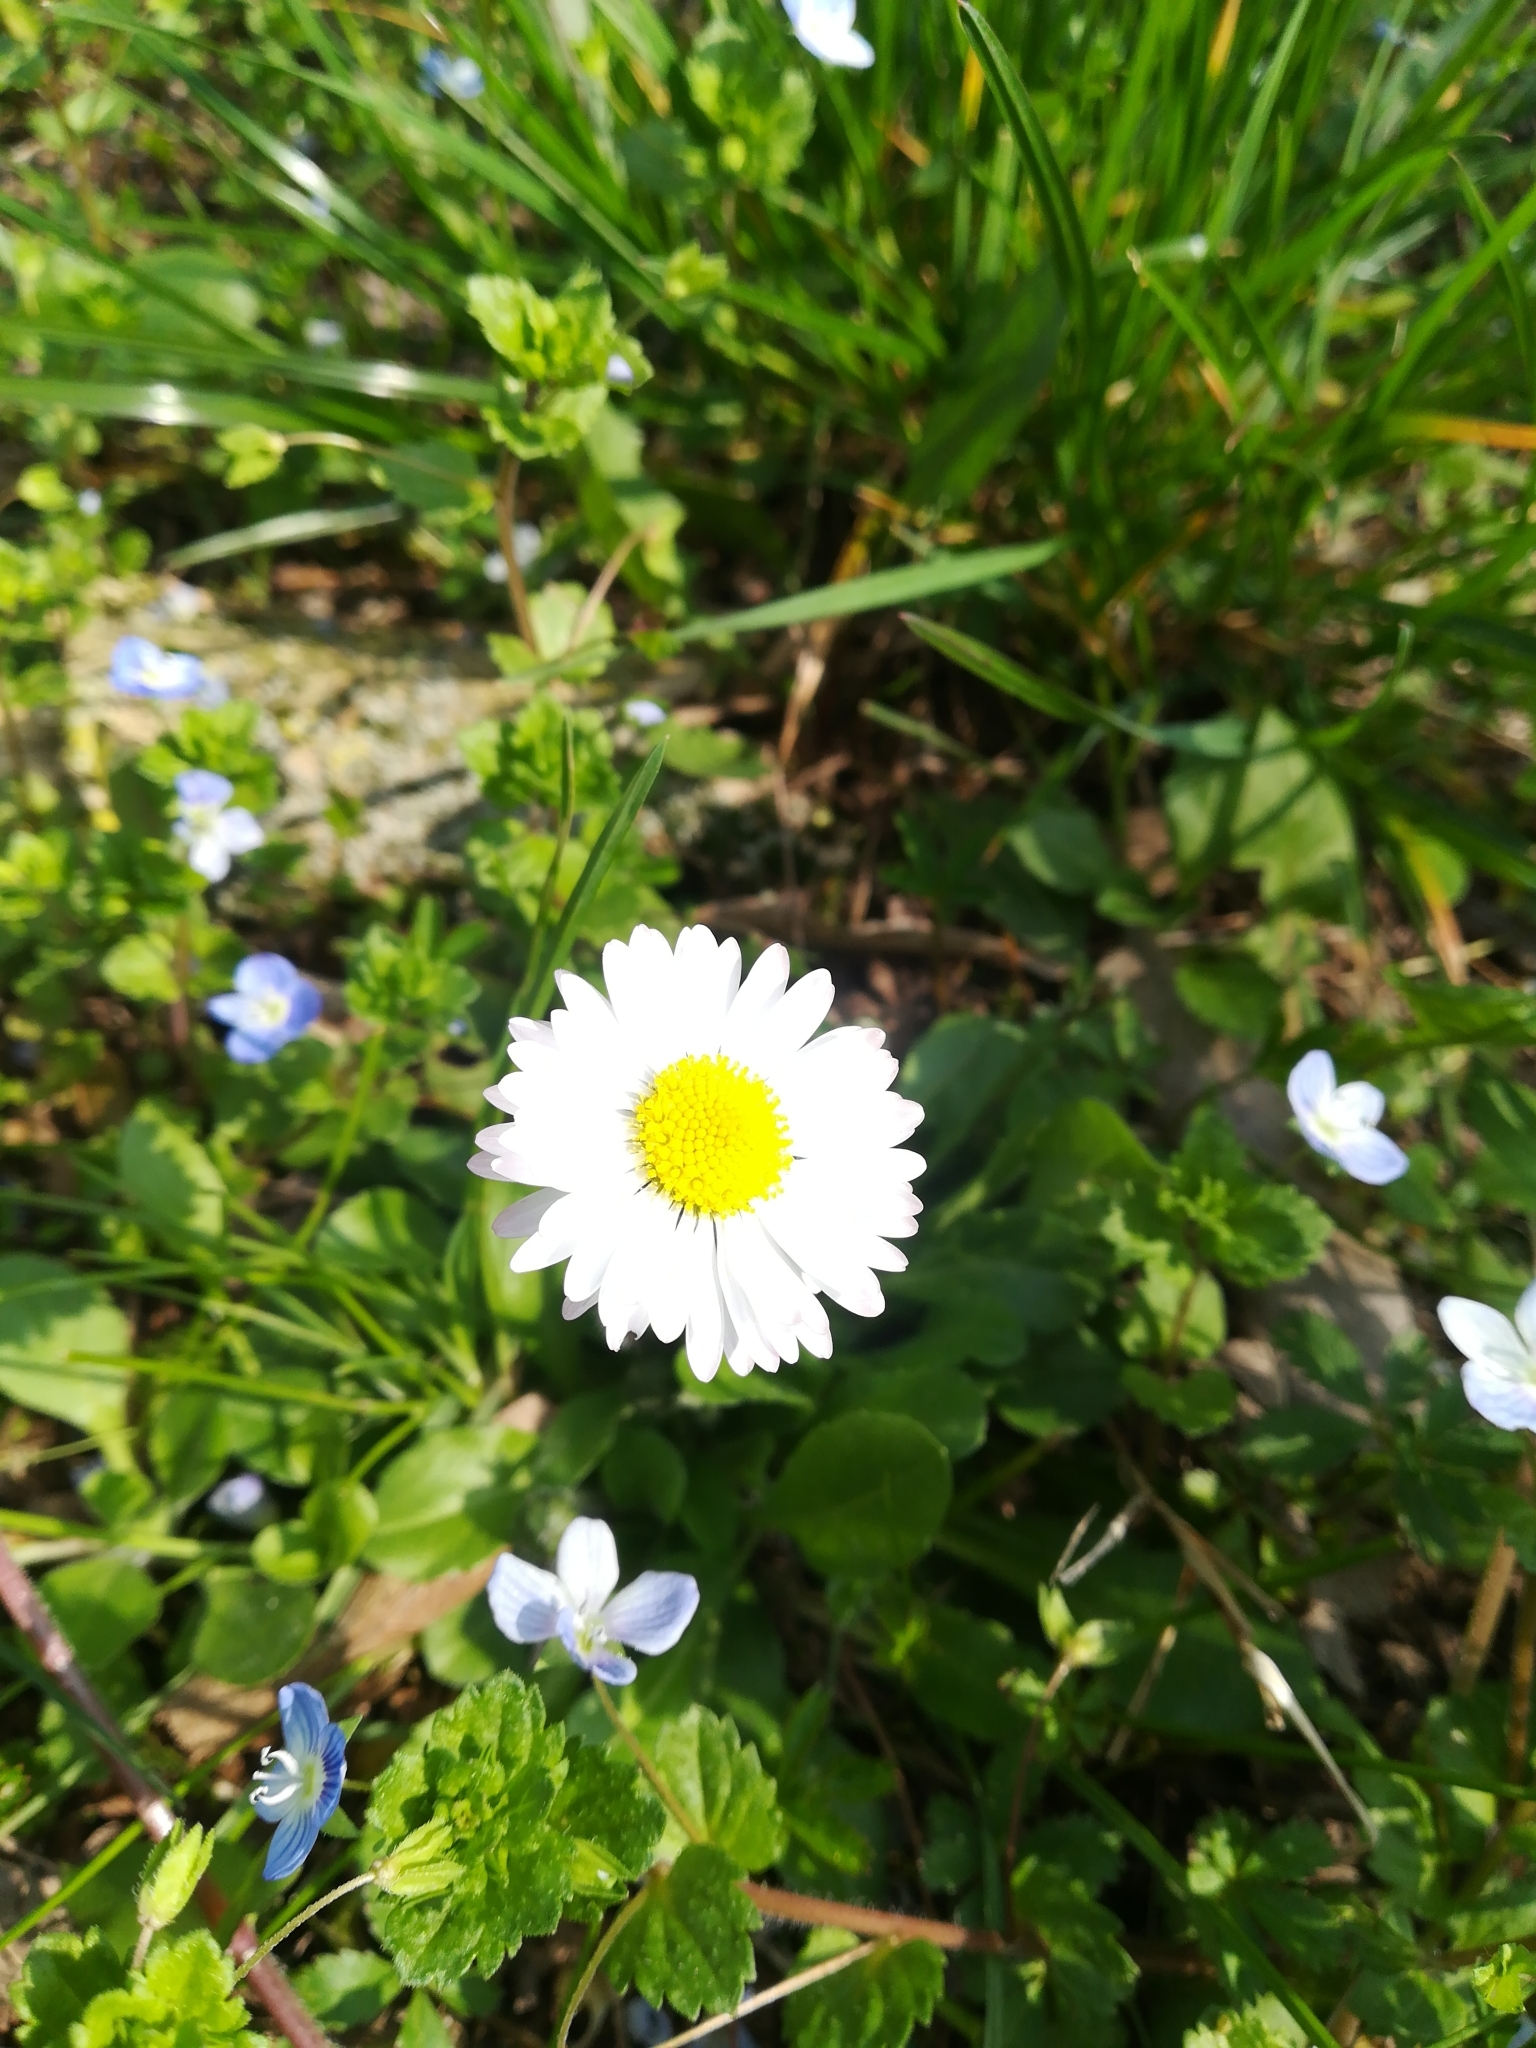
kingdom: Plantae
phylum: Tracheophyta
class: Magnoliopsida
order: Asterales
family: Asteraceae
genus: Bellis
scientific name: Bellis perennis
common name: Lawndaisy
